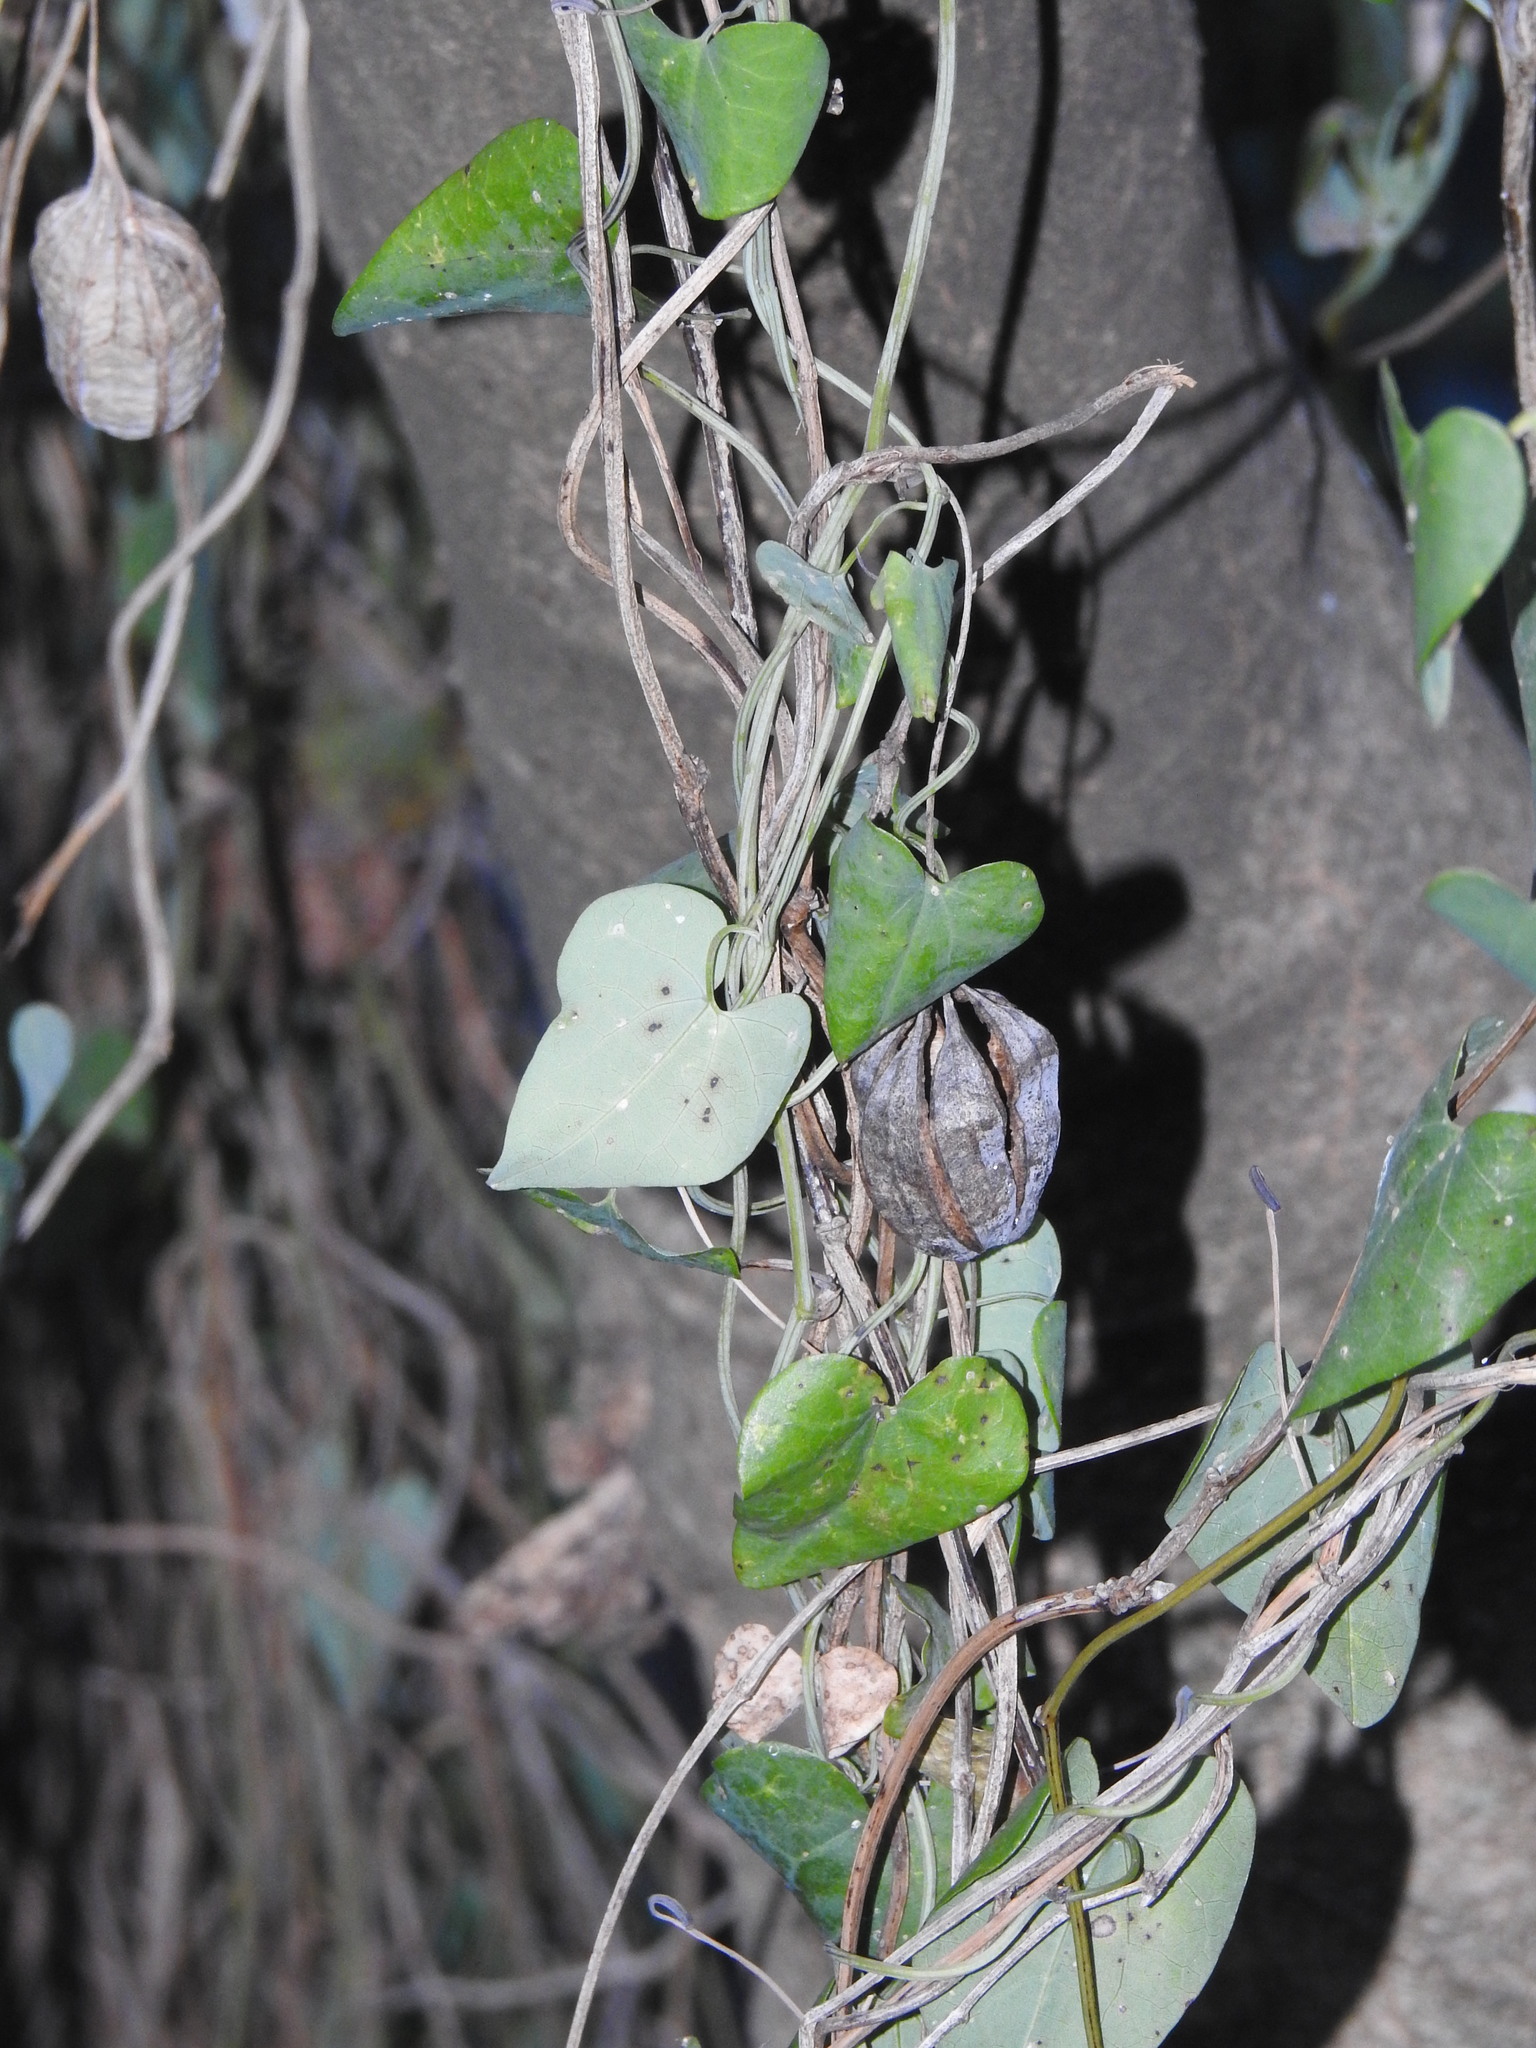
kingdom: Plantae
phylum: Tracheophyta
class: Magnoliopsida
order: Piperales
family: Aristolochiaceae
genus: Aristolochia
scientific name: Aristolochia baetica
